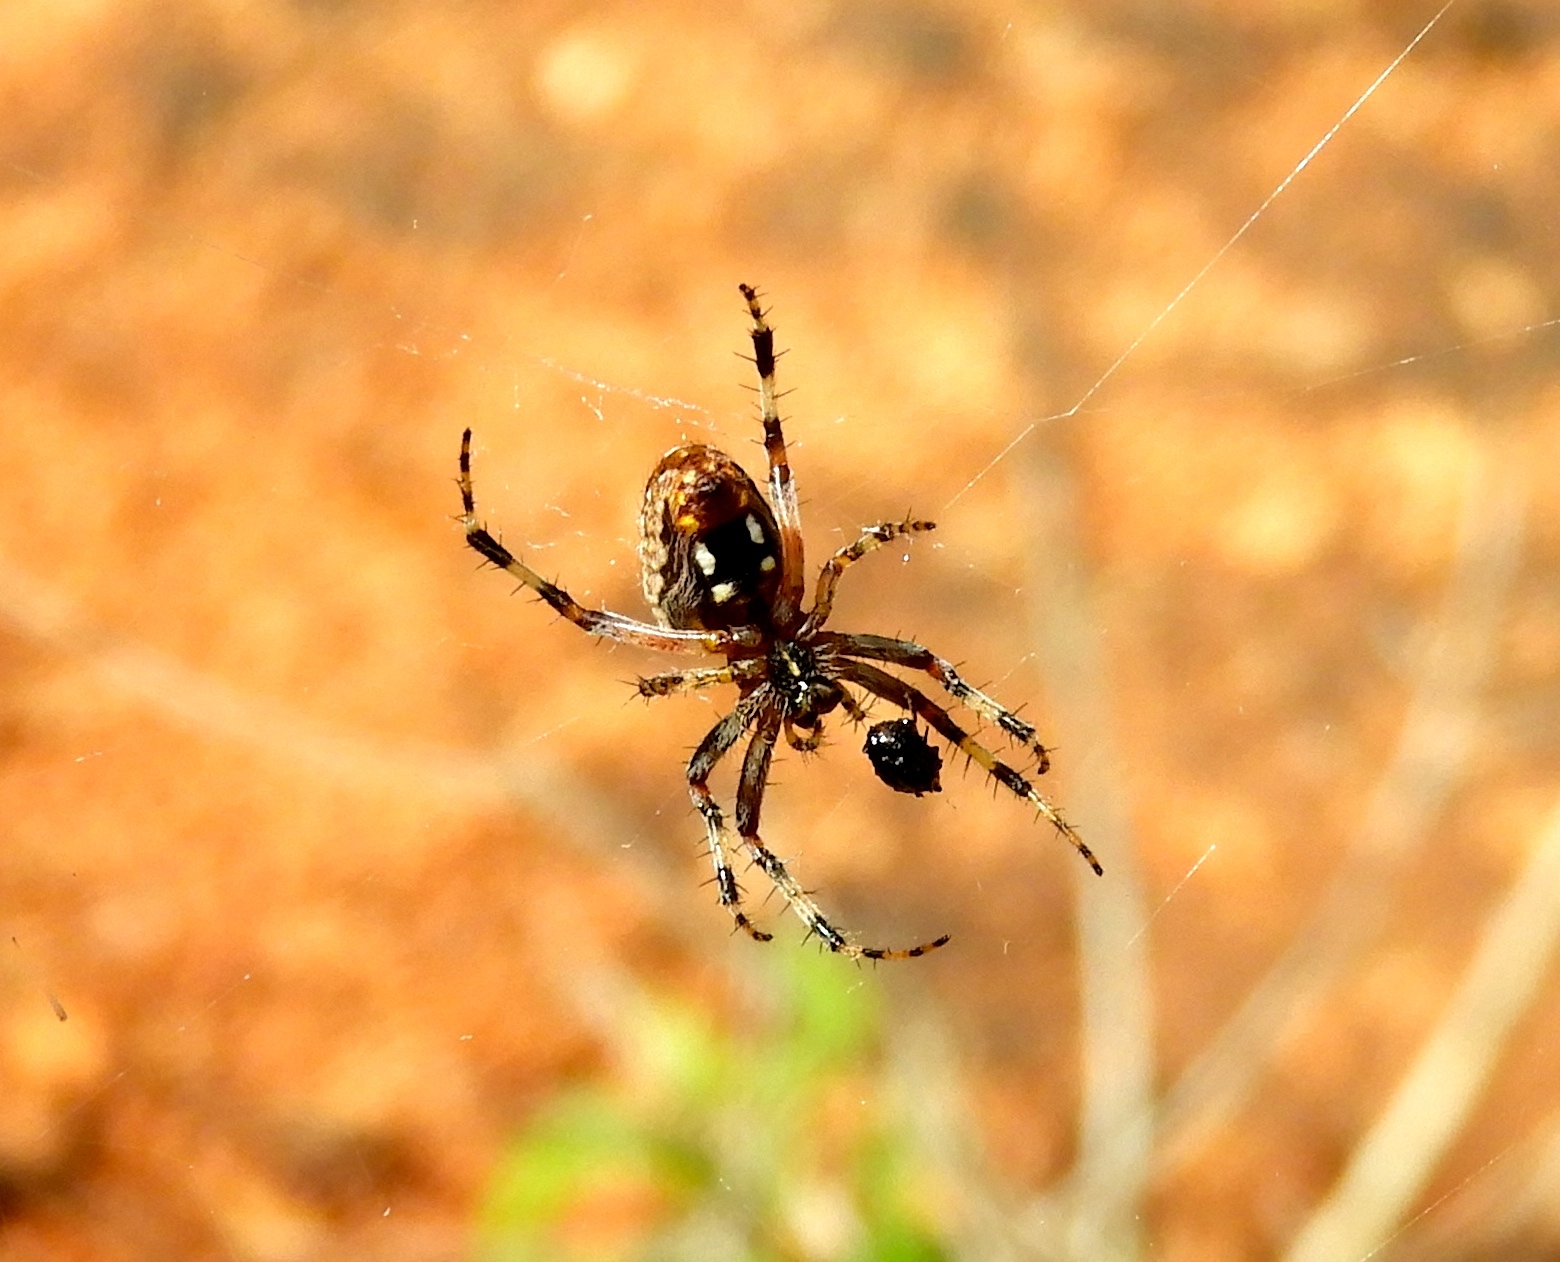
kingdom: Animalia
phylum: Arthropoda
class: Arachnida
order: Araneae
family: Araneidae
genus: Neoscona
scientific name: Neoscona oaxacensis
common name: Orb weavers
